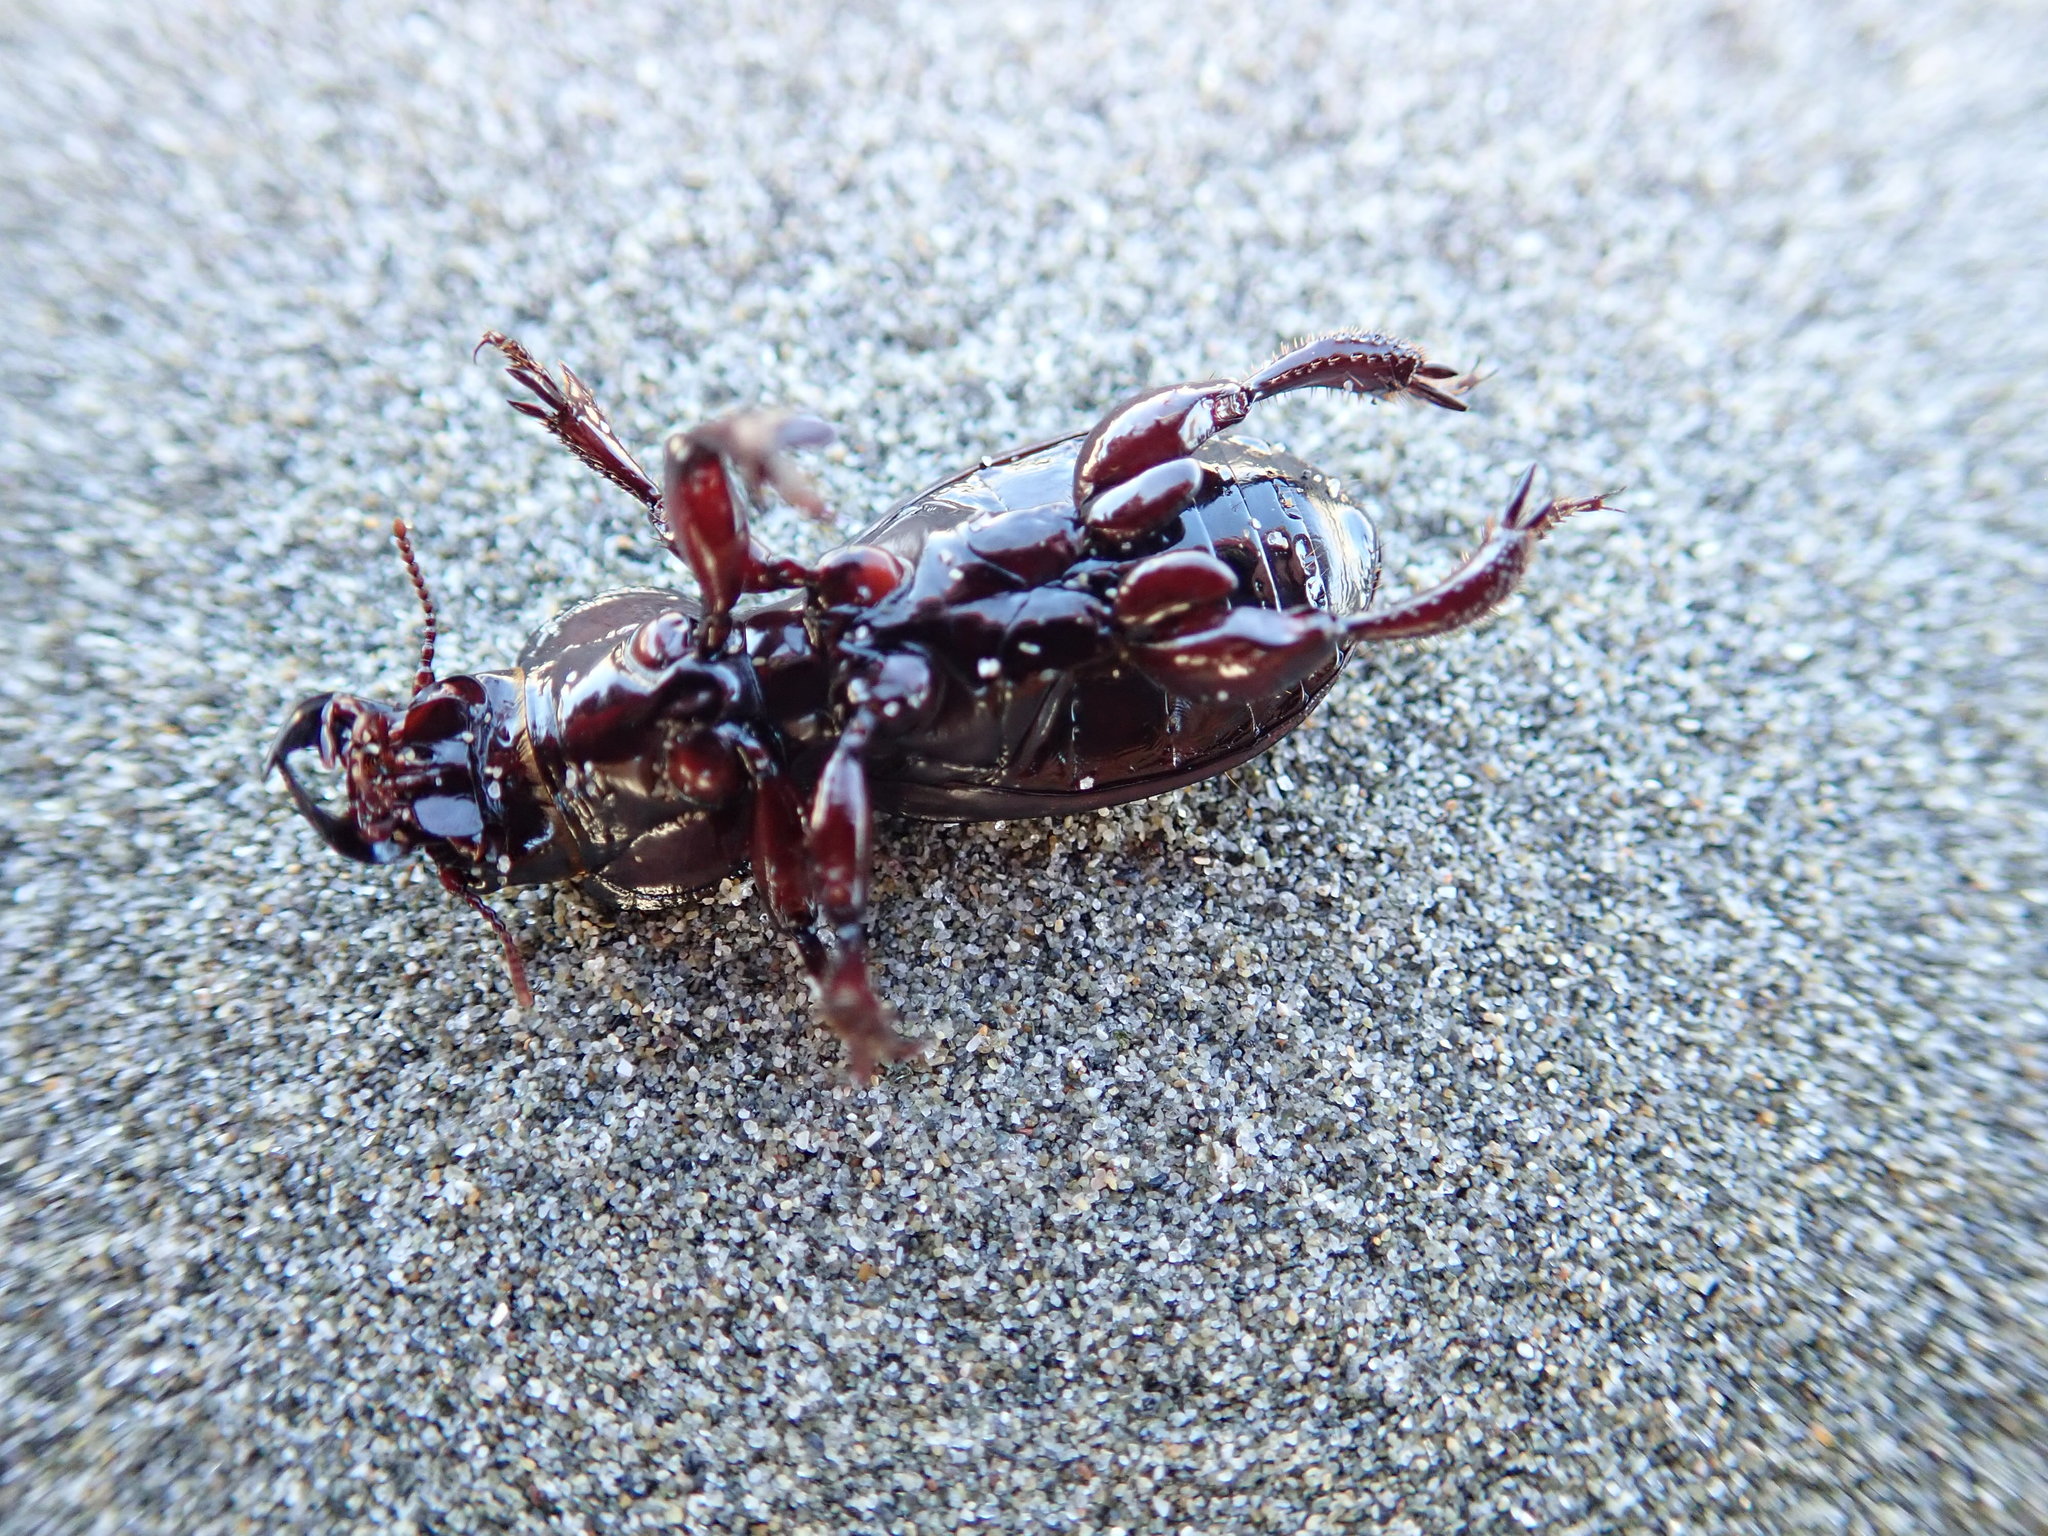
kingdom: Animalia
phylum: Arthropoda
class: Insecta
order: Coleoptera
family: Carabidae
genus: Mecodema
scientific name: Mecodema antarcticum
